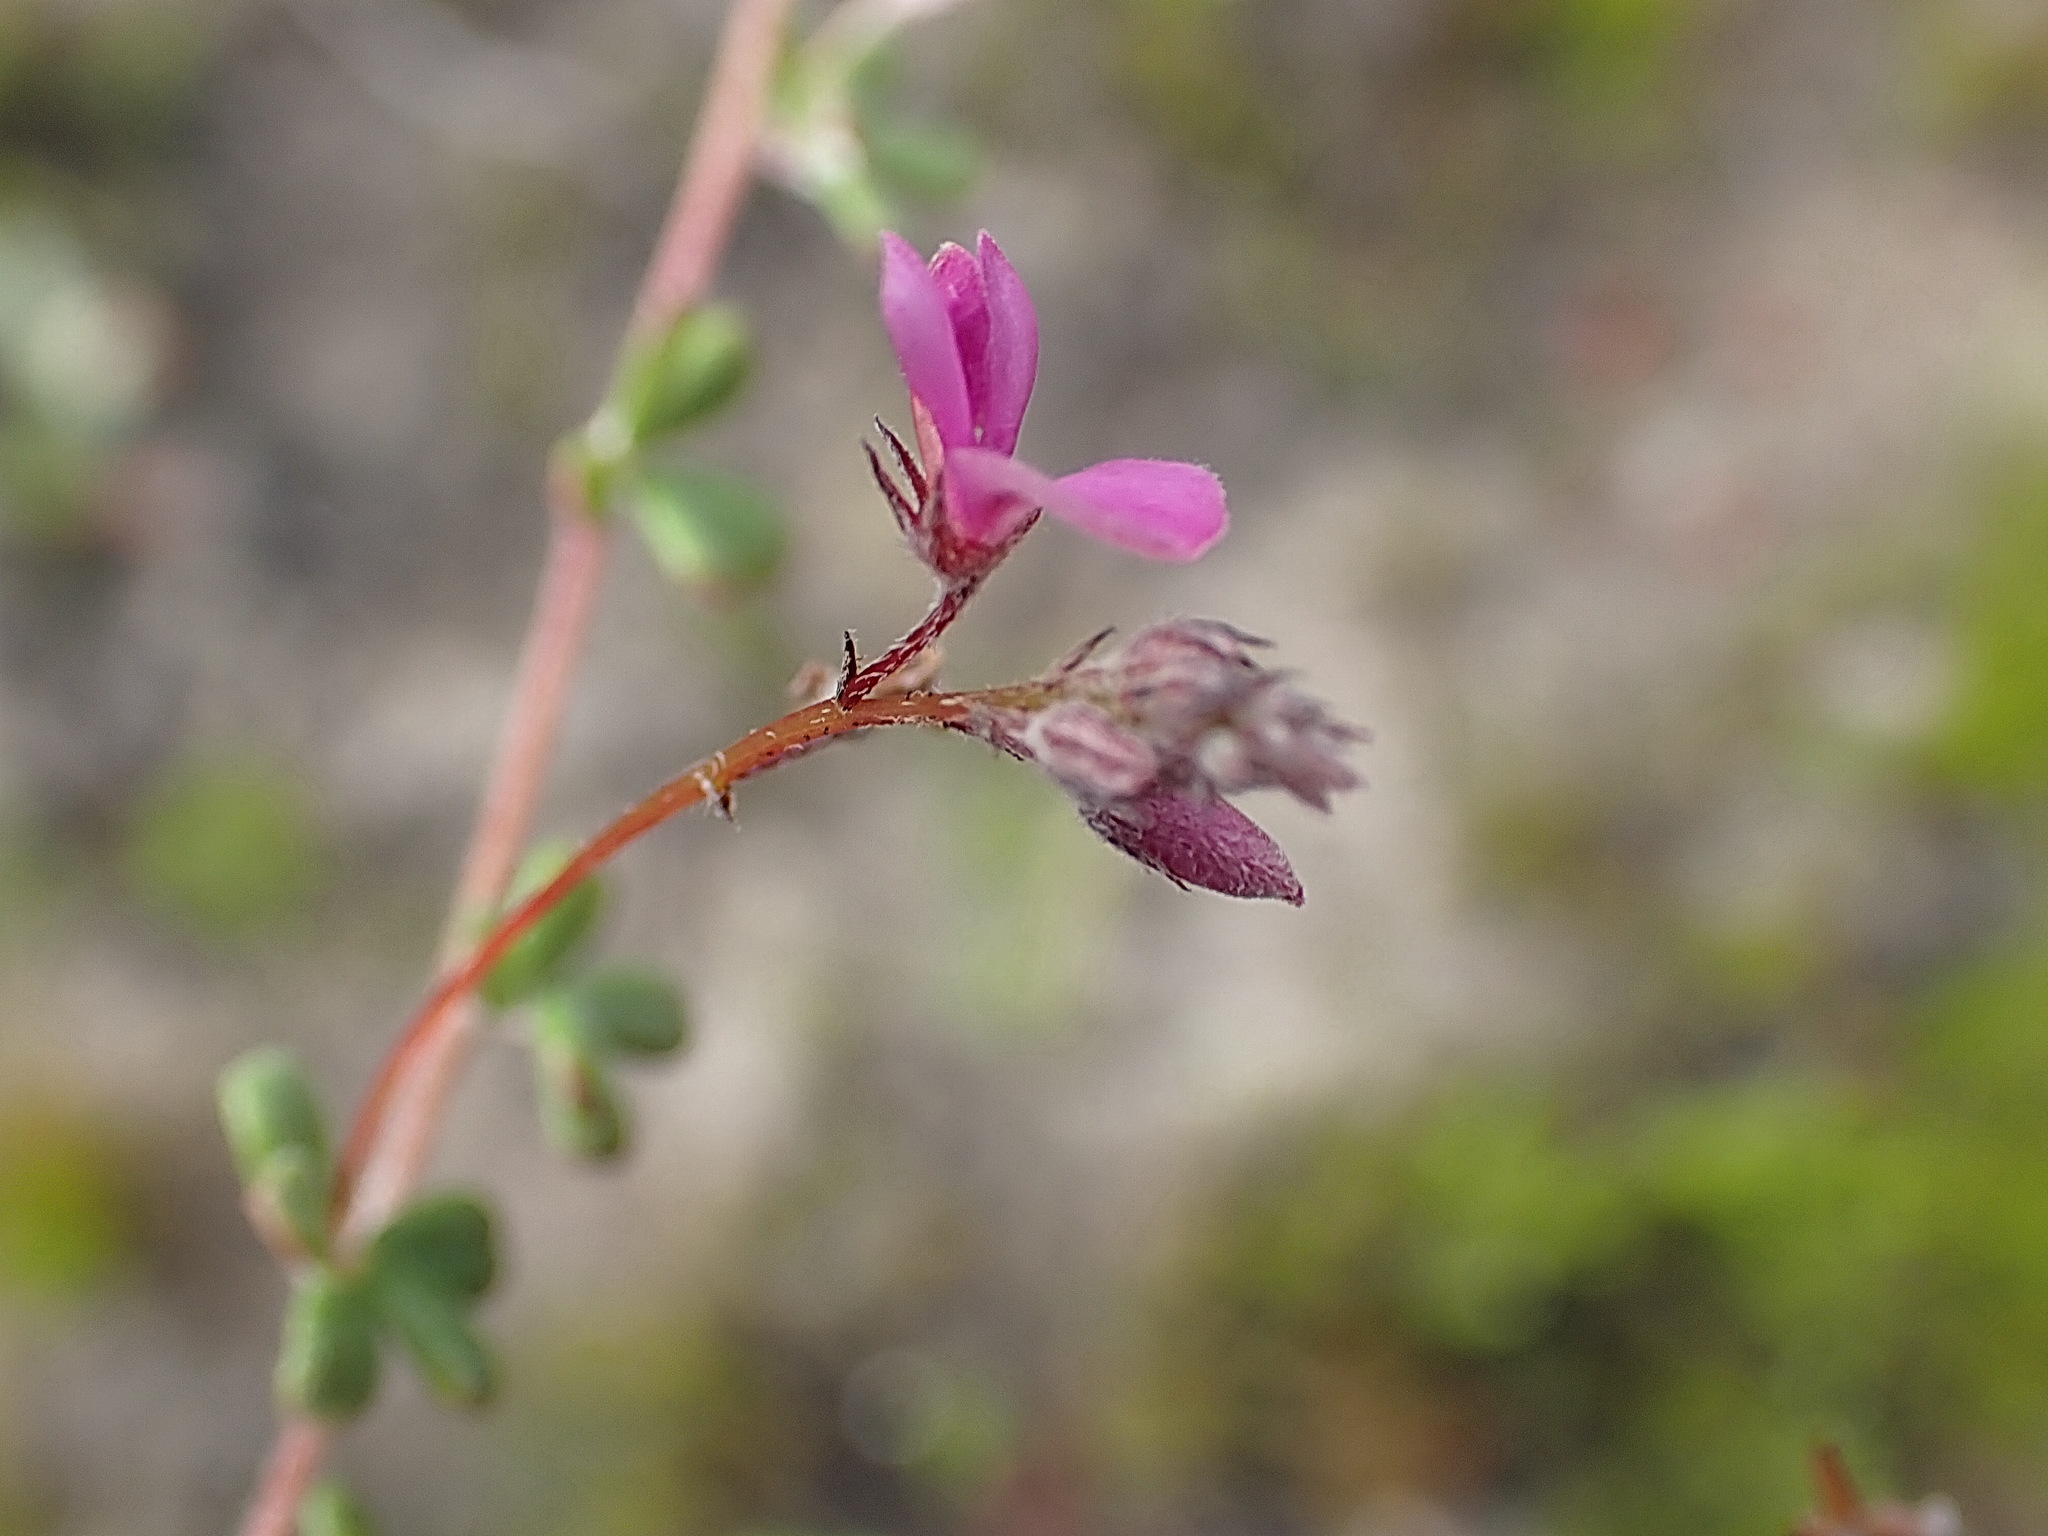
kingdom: Plantae
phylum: Tracheophyta
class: Magnoliopsida
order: Fabales
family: Fabaceae
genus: Indigofera
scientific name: Indigofera
